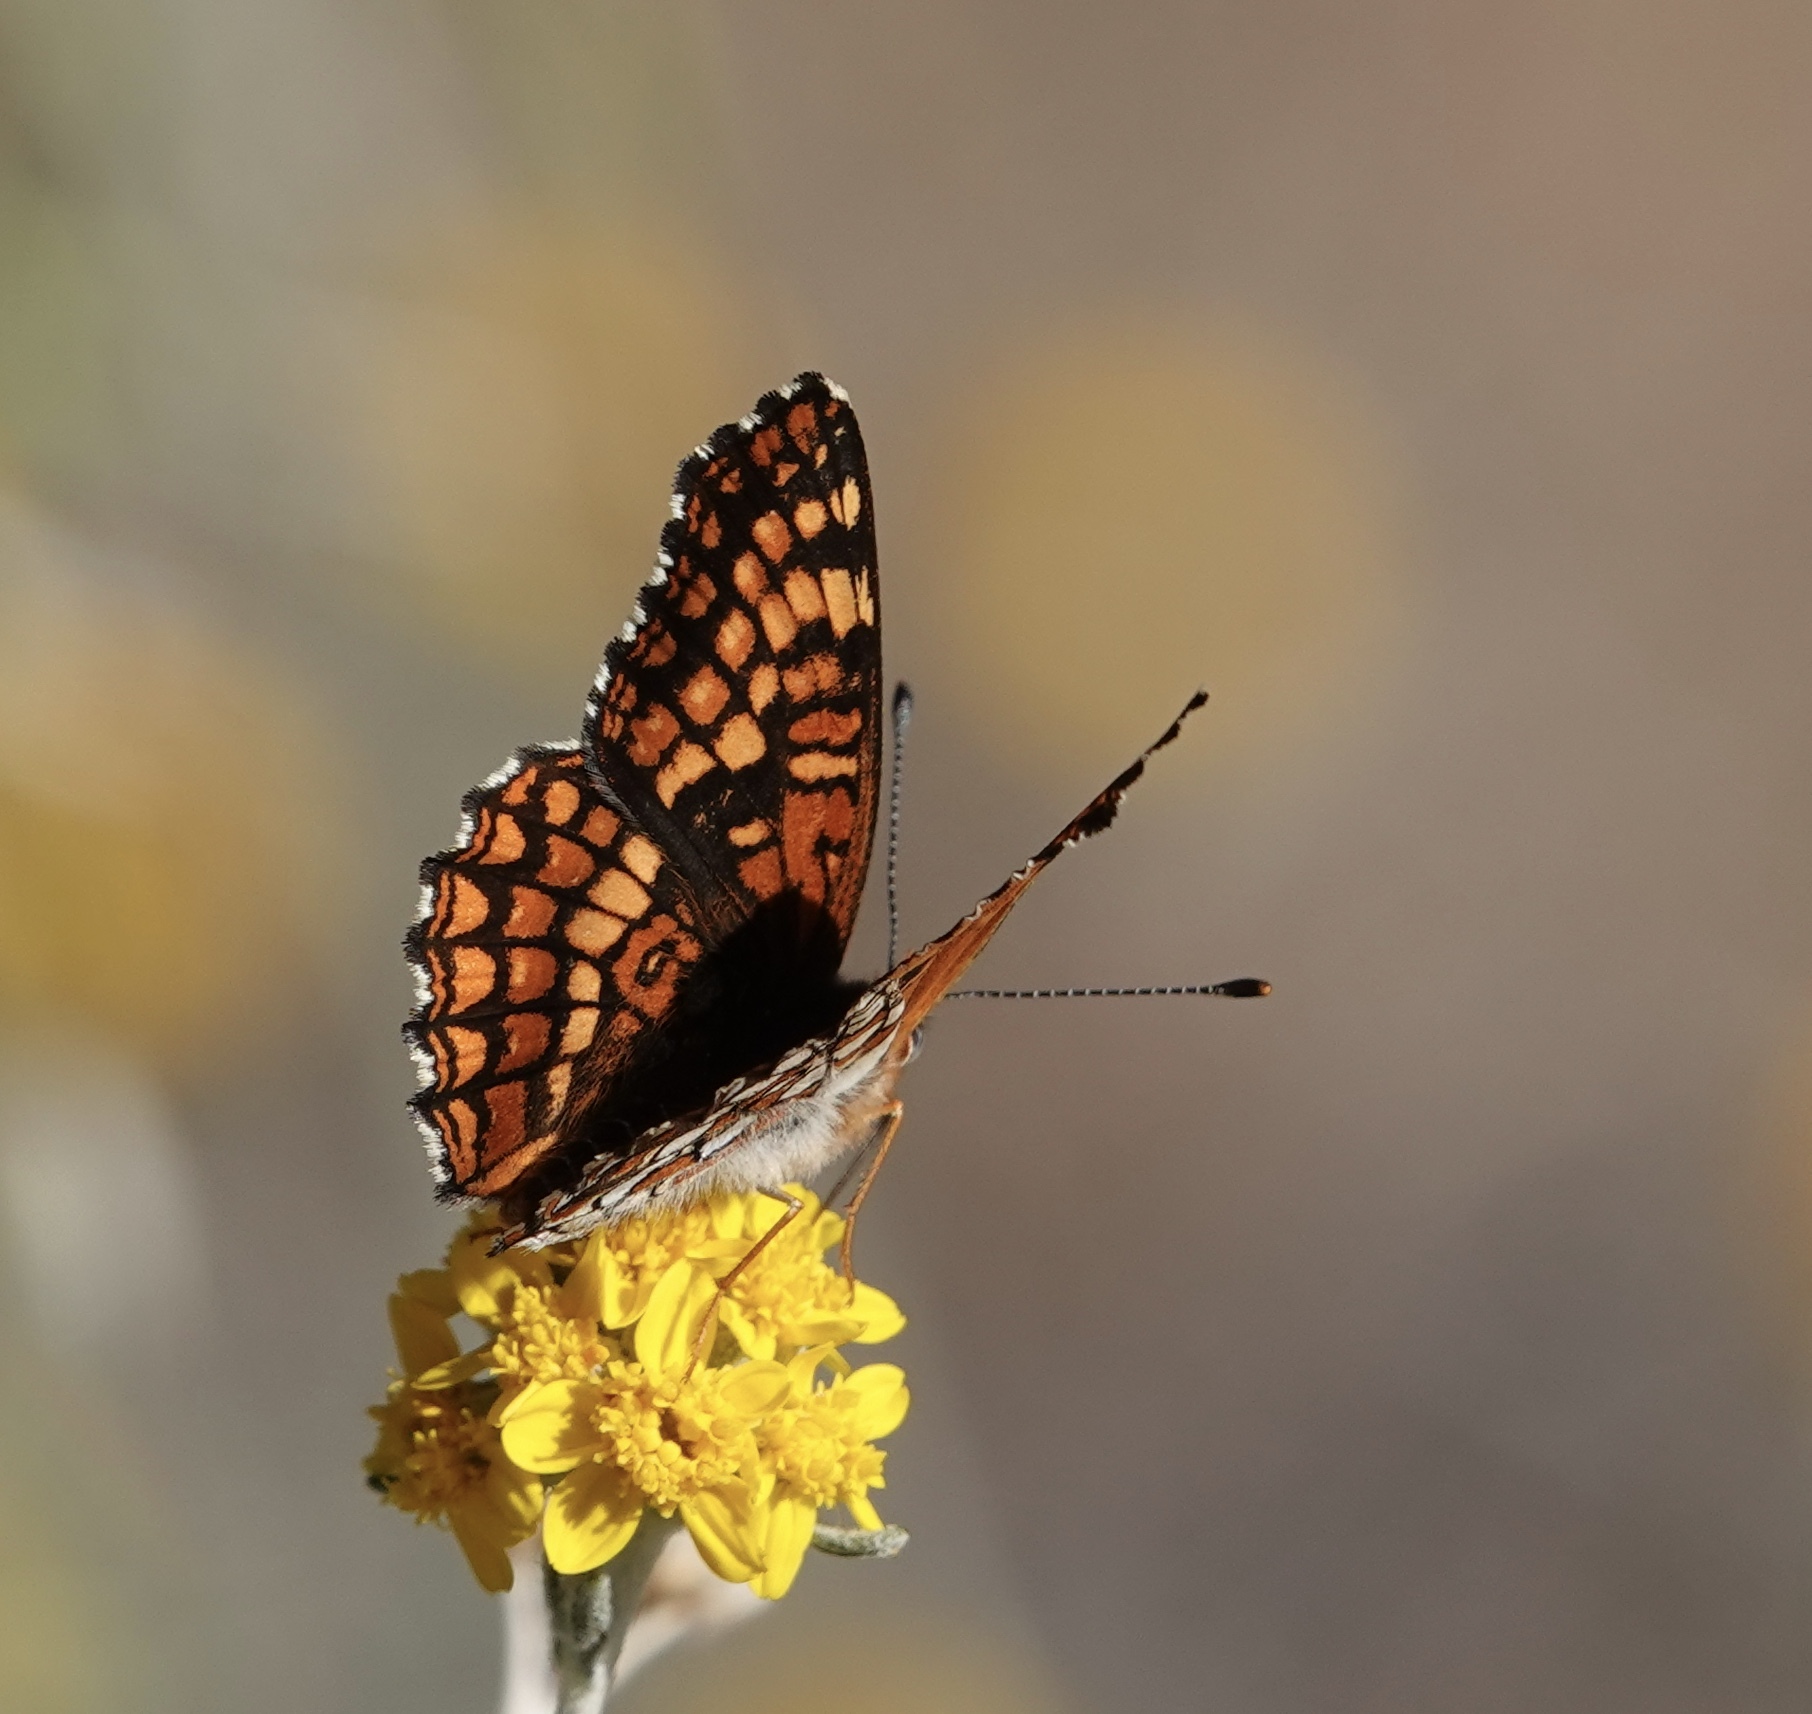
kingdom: Animalia
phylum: Arthropoda
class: Insecta
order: Lepidoptera
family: Nymphalidae
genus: Chlosyne
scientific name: Chlosyne gabbii
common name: Gabb's checkerspot
